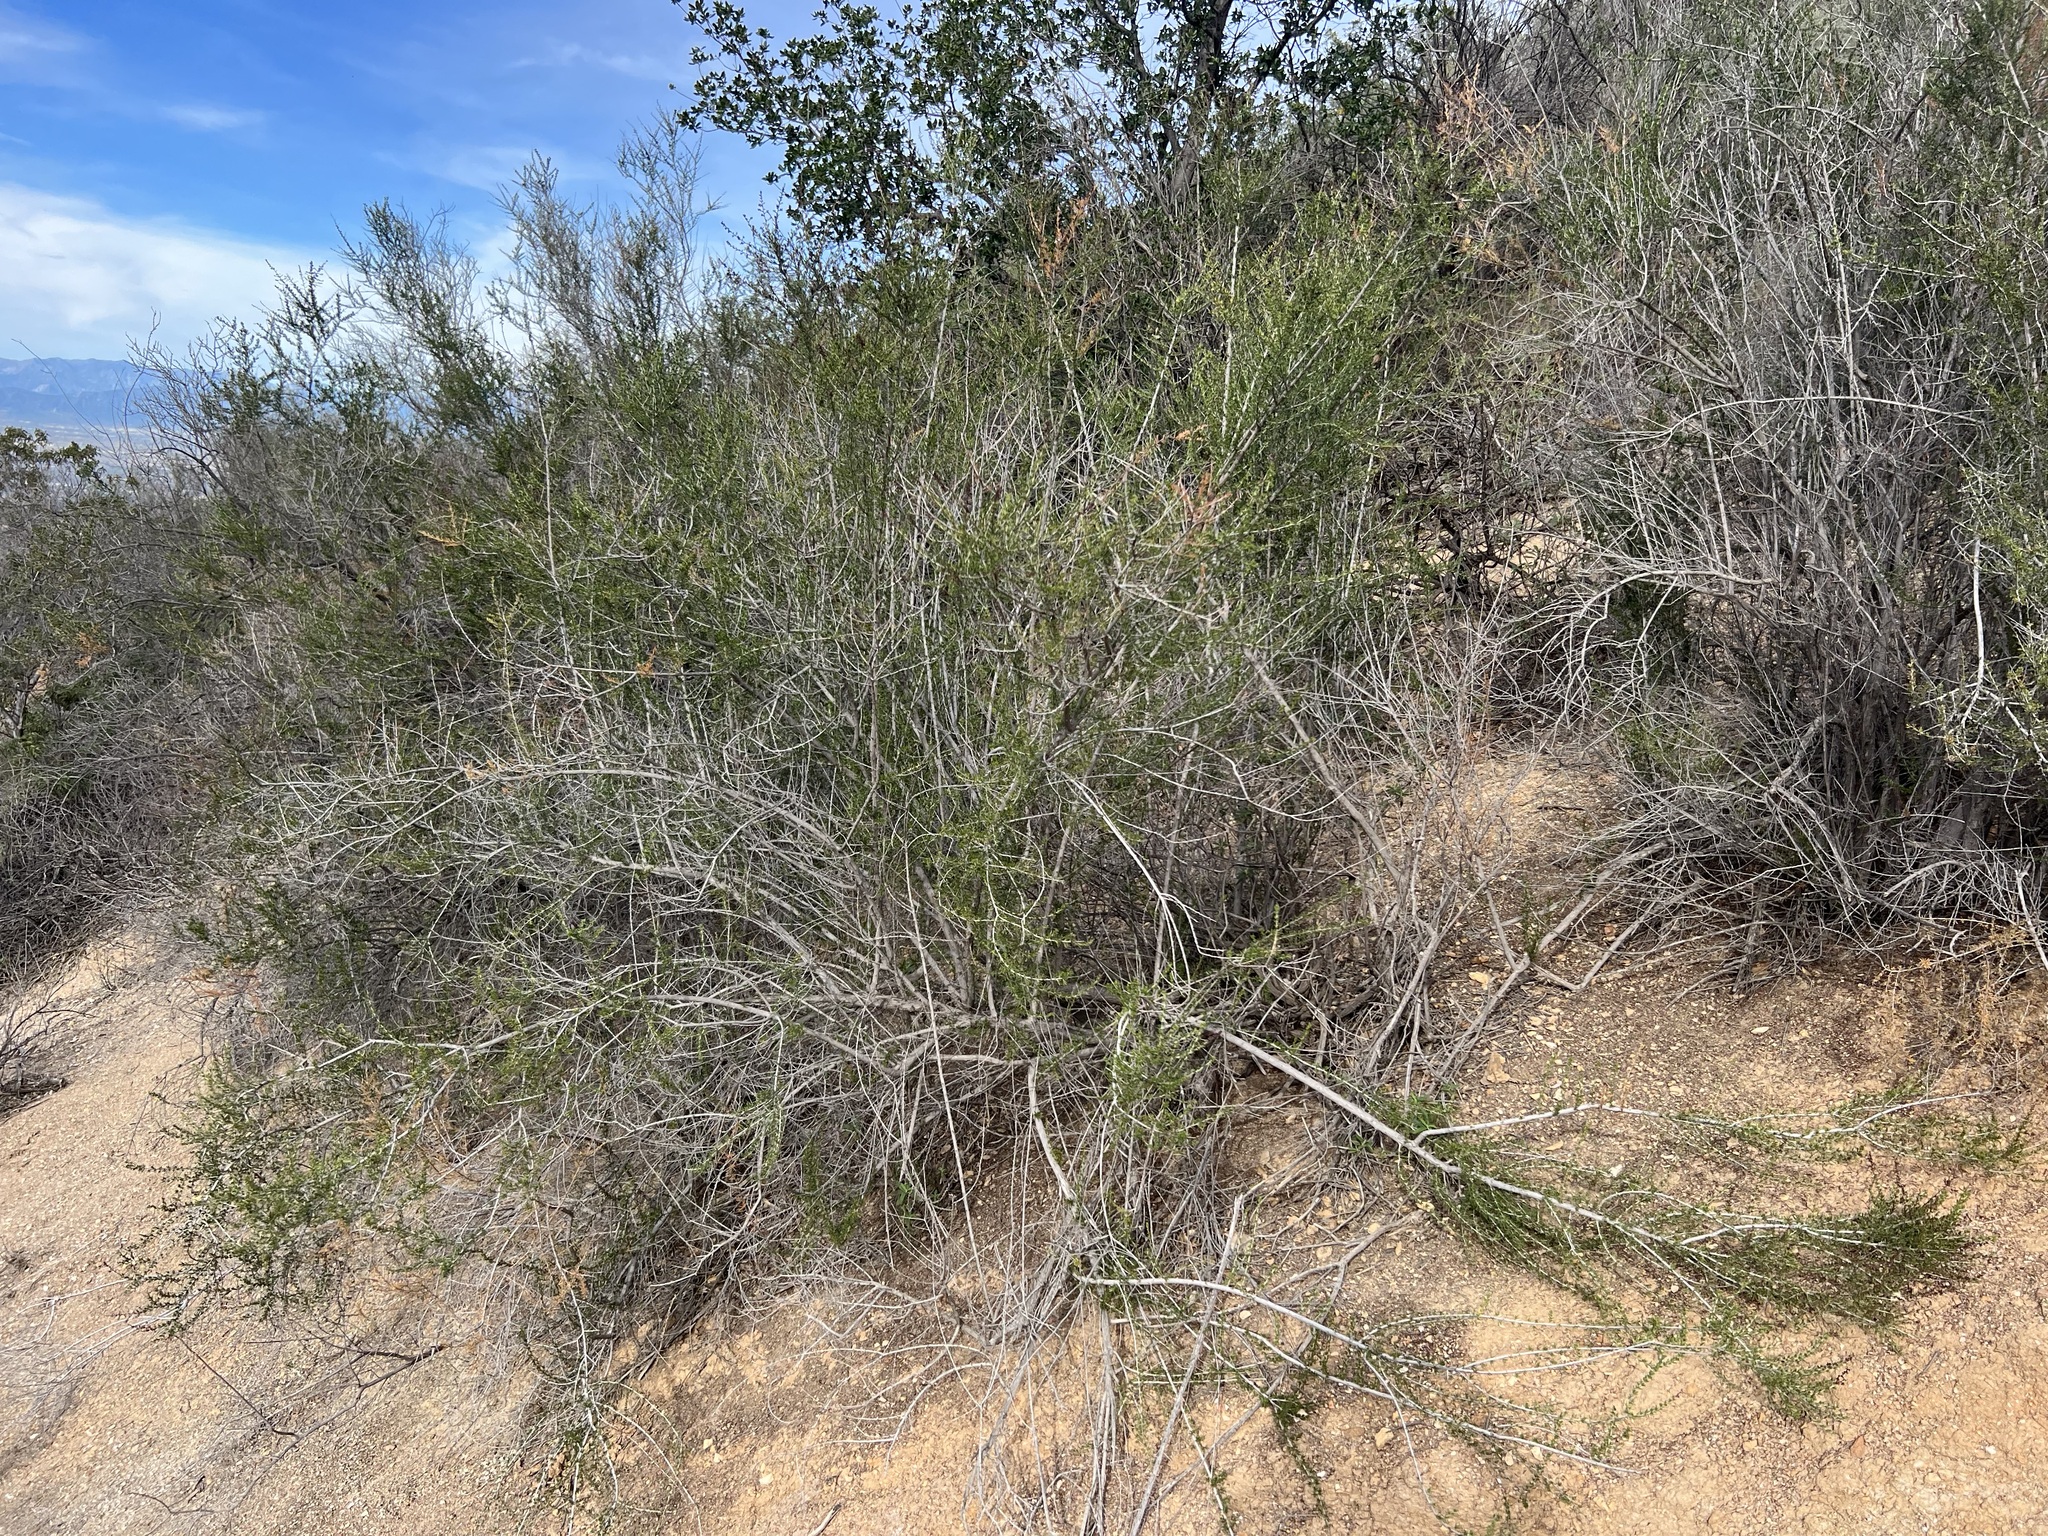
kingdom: Plantae
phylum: Tracheophyta
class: Magnoliopsida
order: Rosales
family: Rosaceae
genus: Adenostoma
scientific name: Adenostoma fasciculatum
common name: Chamise
